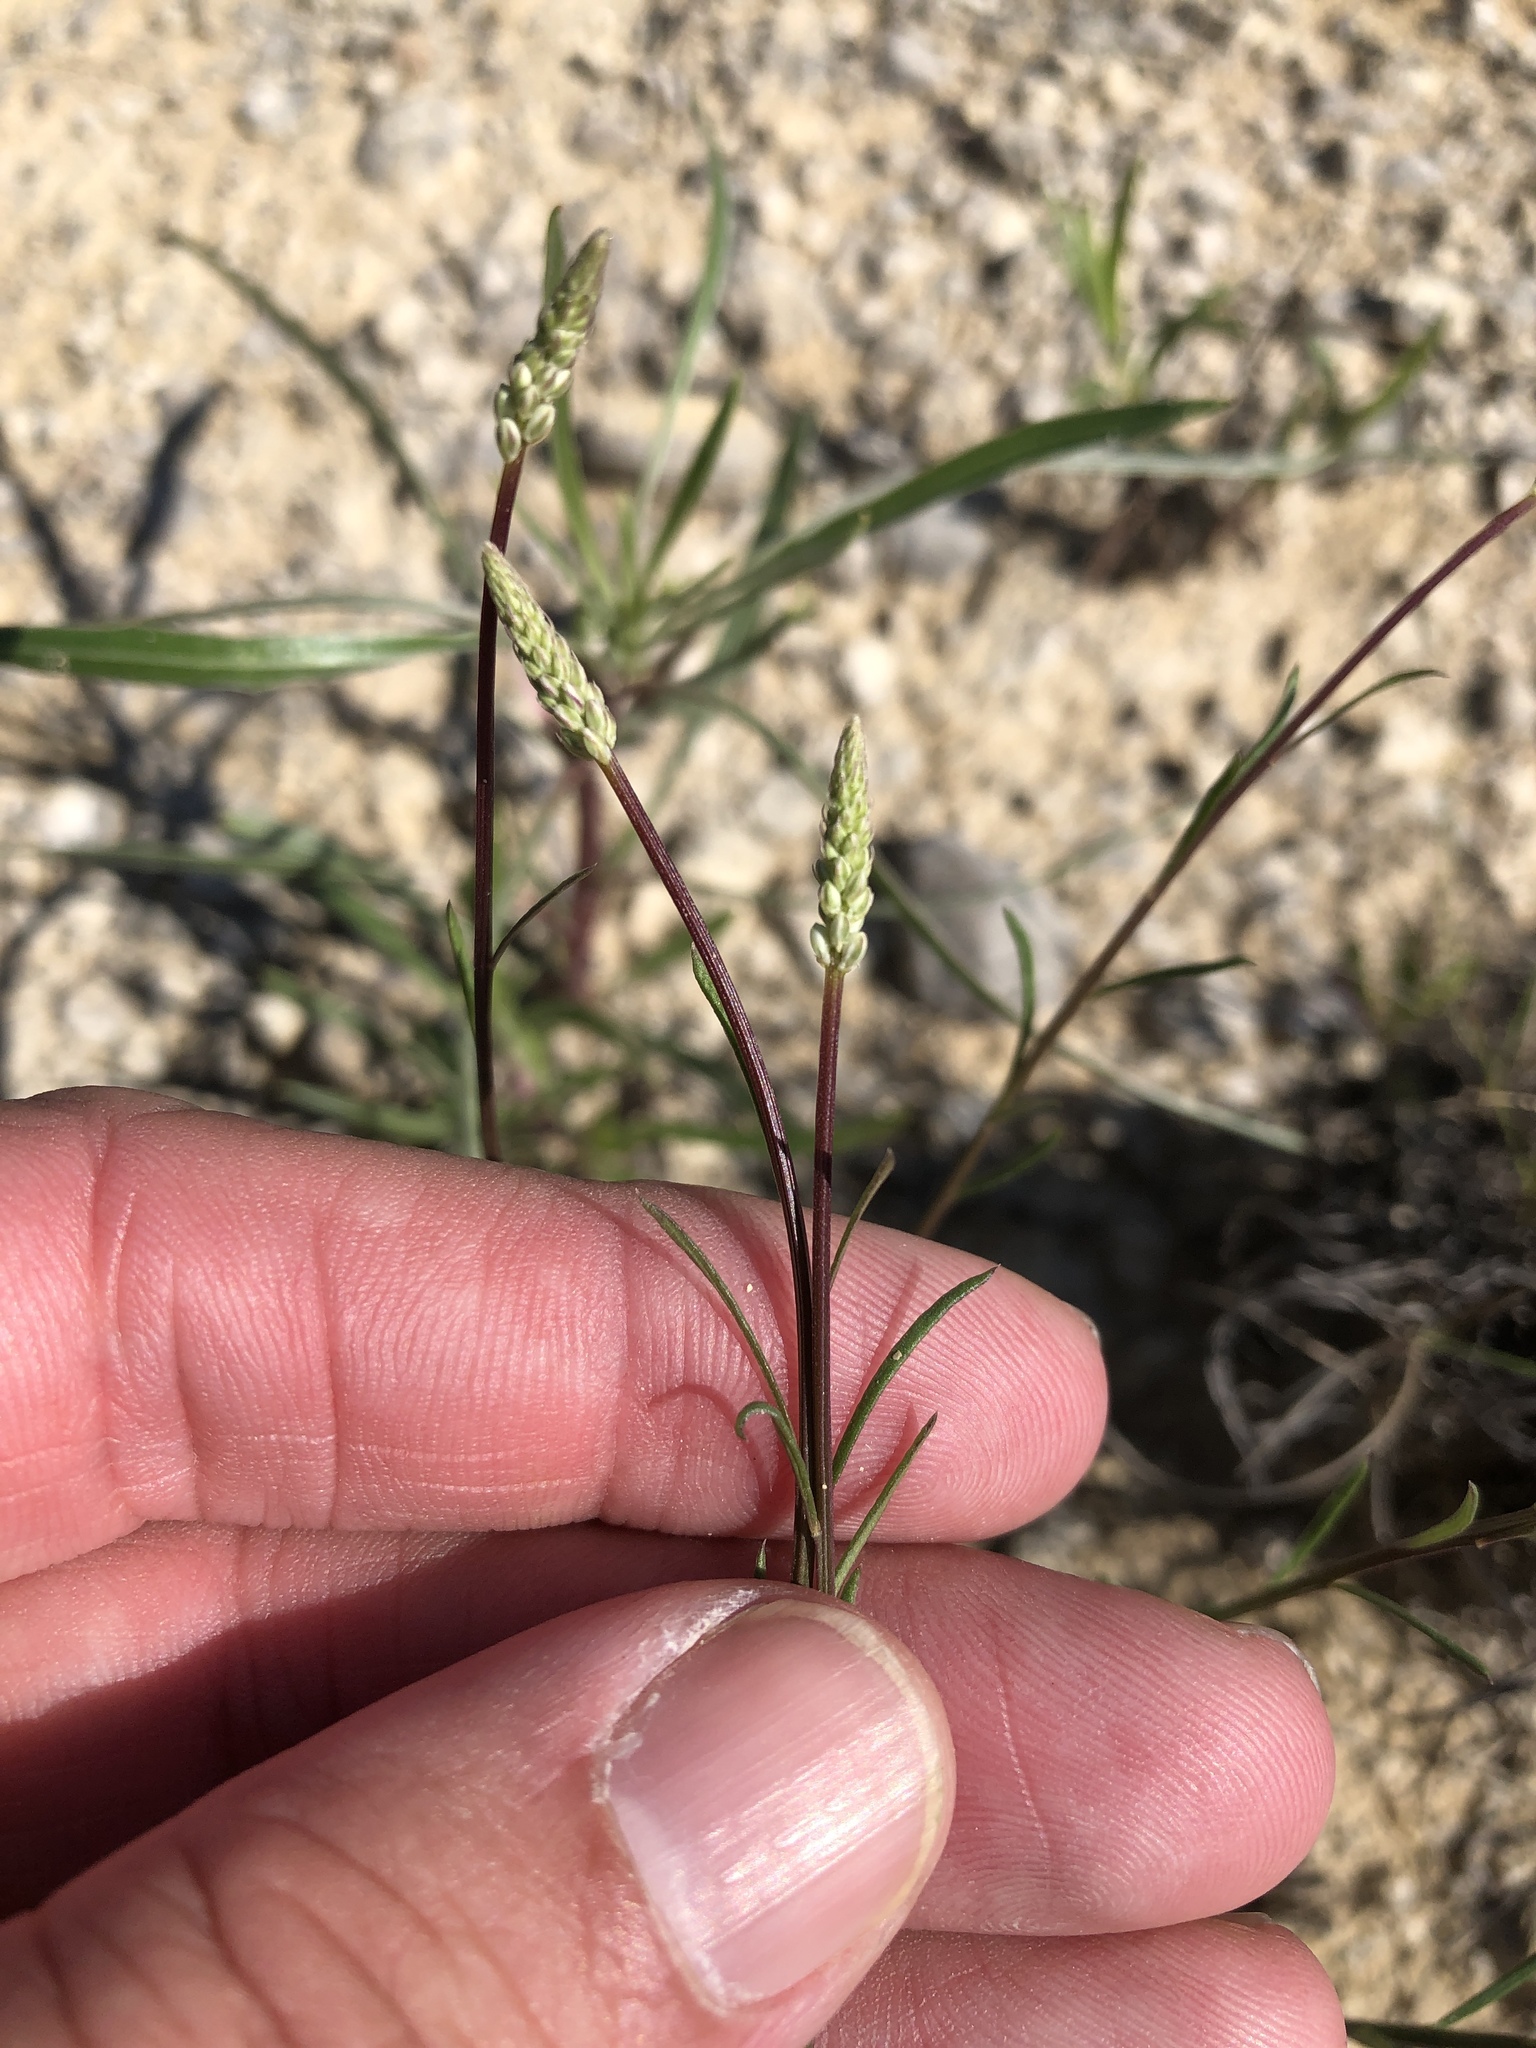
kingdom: Plantae
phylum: Tracheophyta
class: Magnoliopsida
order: Fabales
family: Polygalaceae
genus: Polygala
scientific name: Polygala alba
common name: White milkwort
